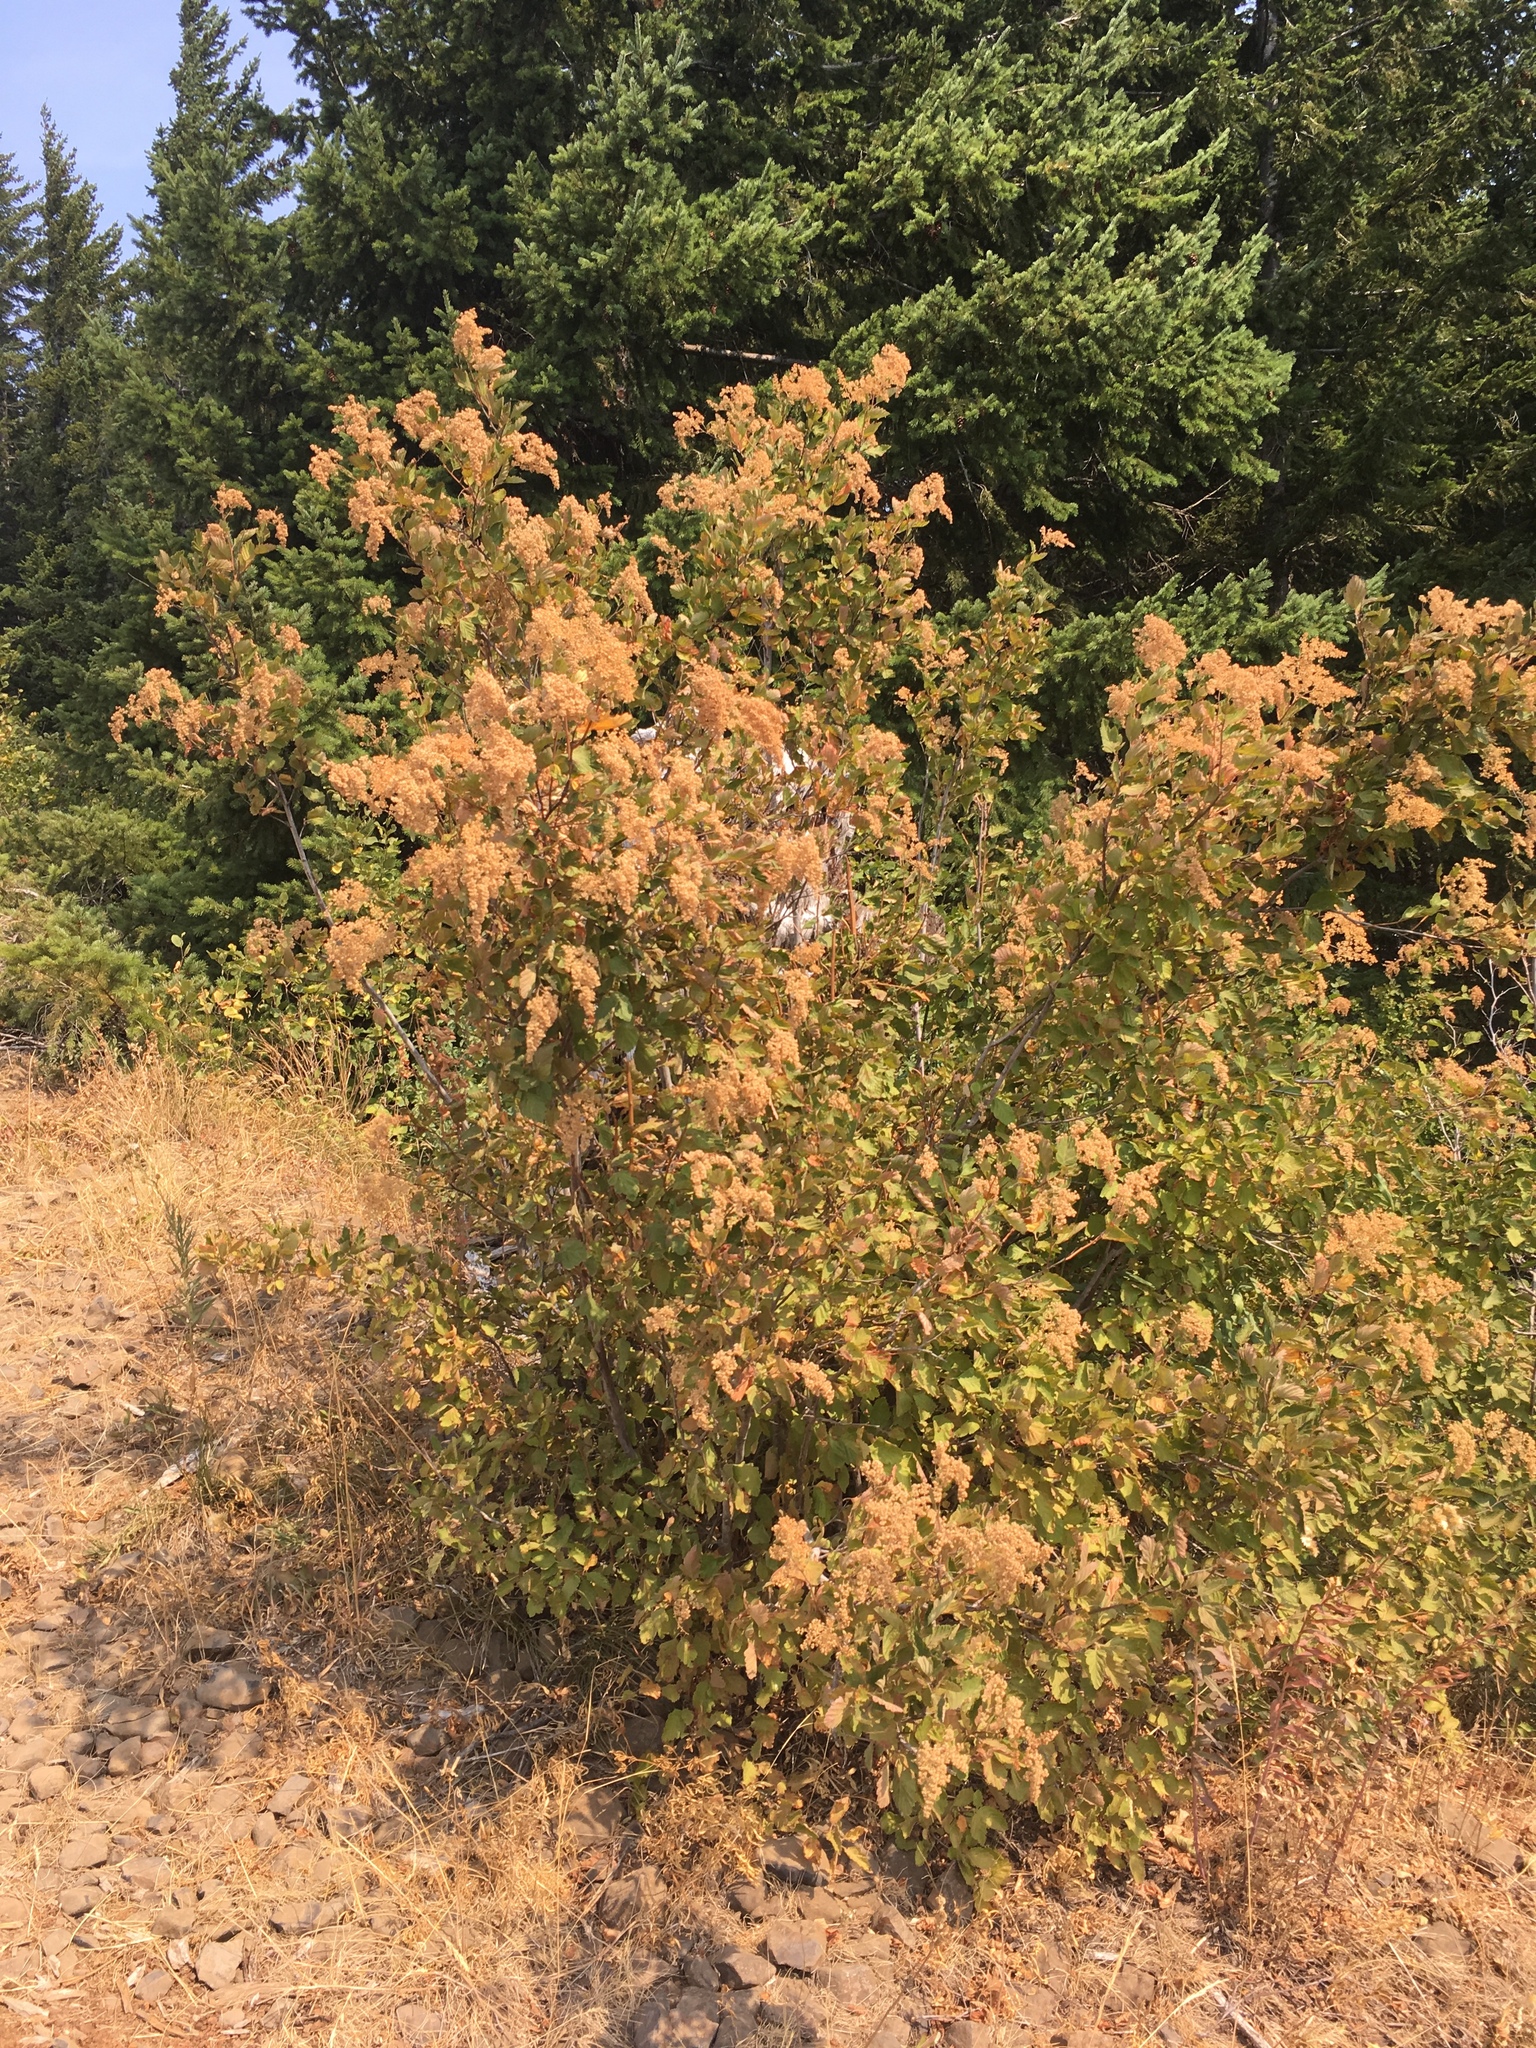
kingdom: Plantae
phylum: Tracheophyta
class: Magnoliopsida
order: Rosales
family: Rosaceae
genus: Holodiscus
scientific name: Holodiscus discolor
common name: Oceanspray
